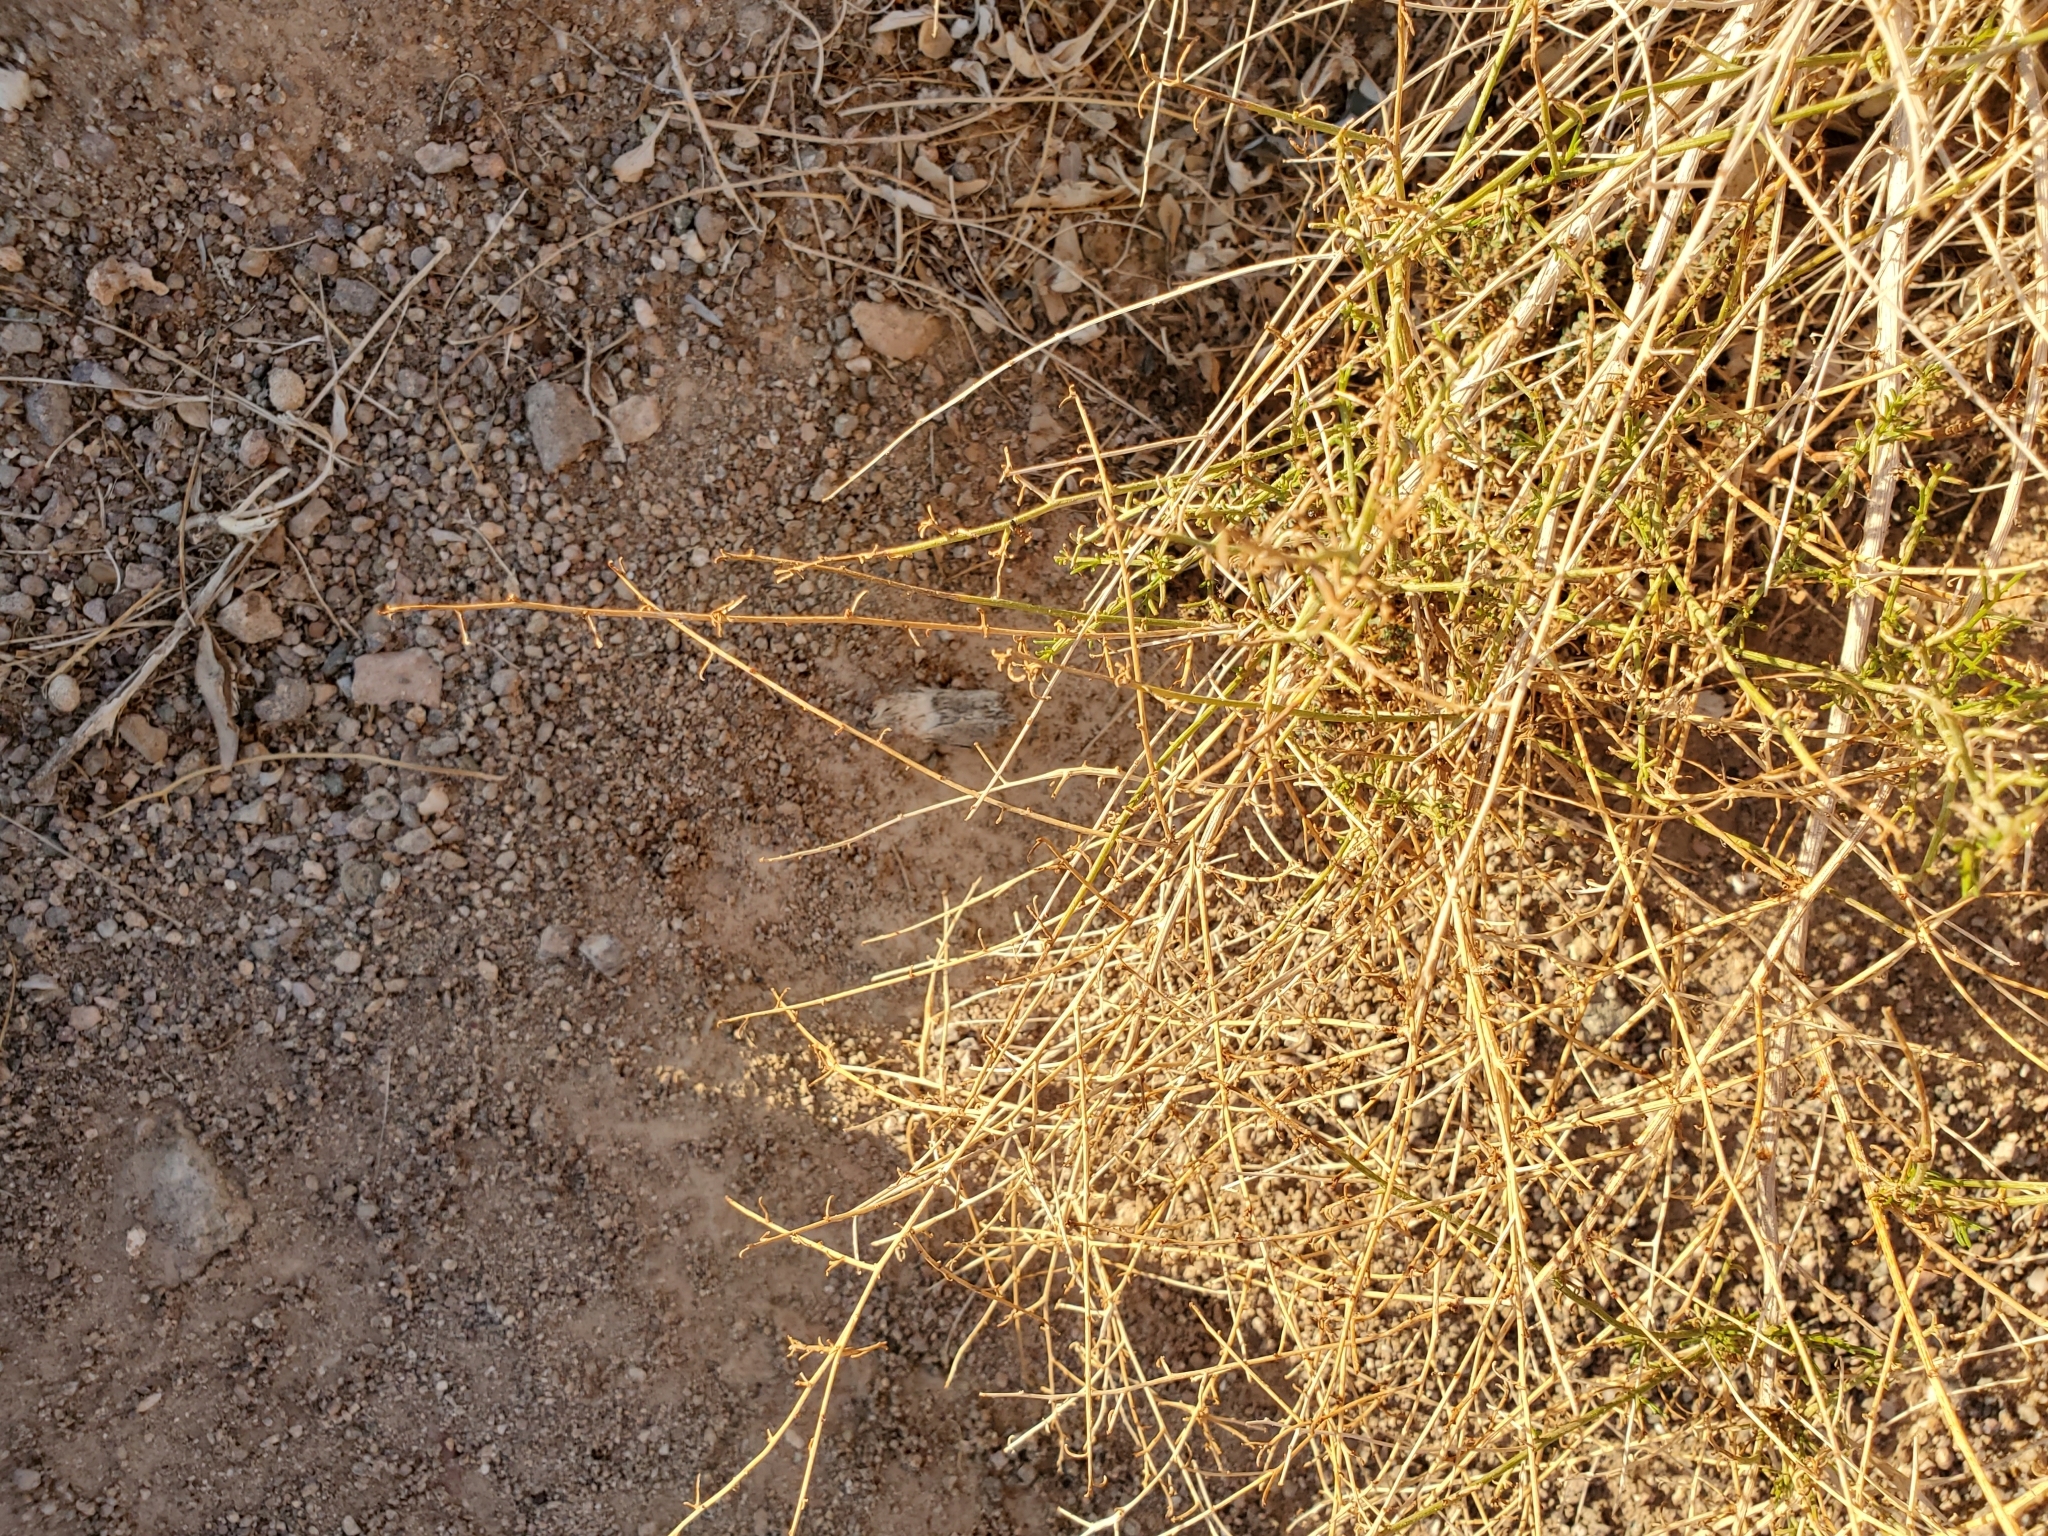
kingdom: Plantae
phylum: Tracheophyta
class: Magnoliopsida
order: Asterales
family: Asteraceae
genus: Ambrosia
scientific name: Ambrosia dumosa
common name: Bur-sage
